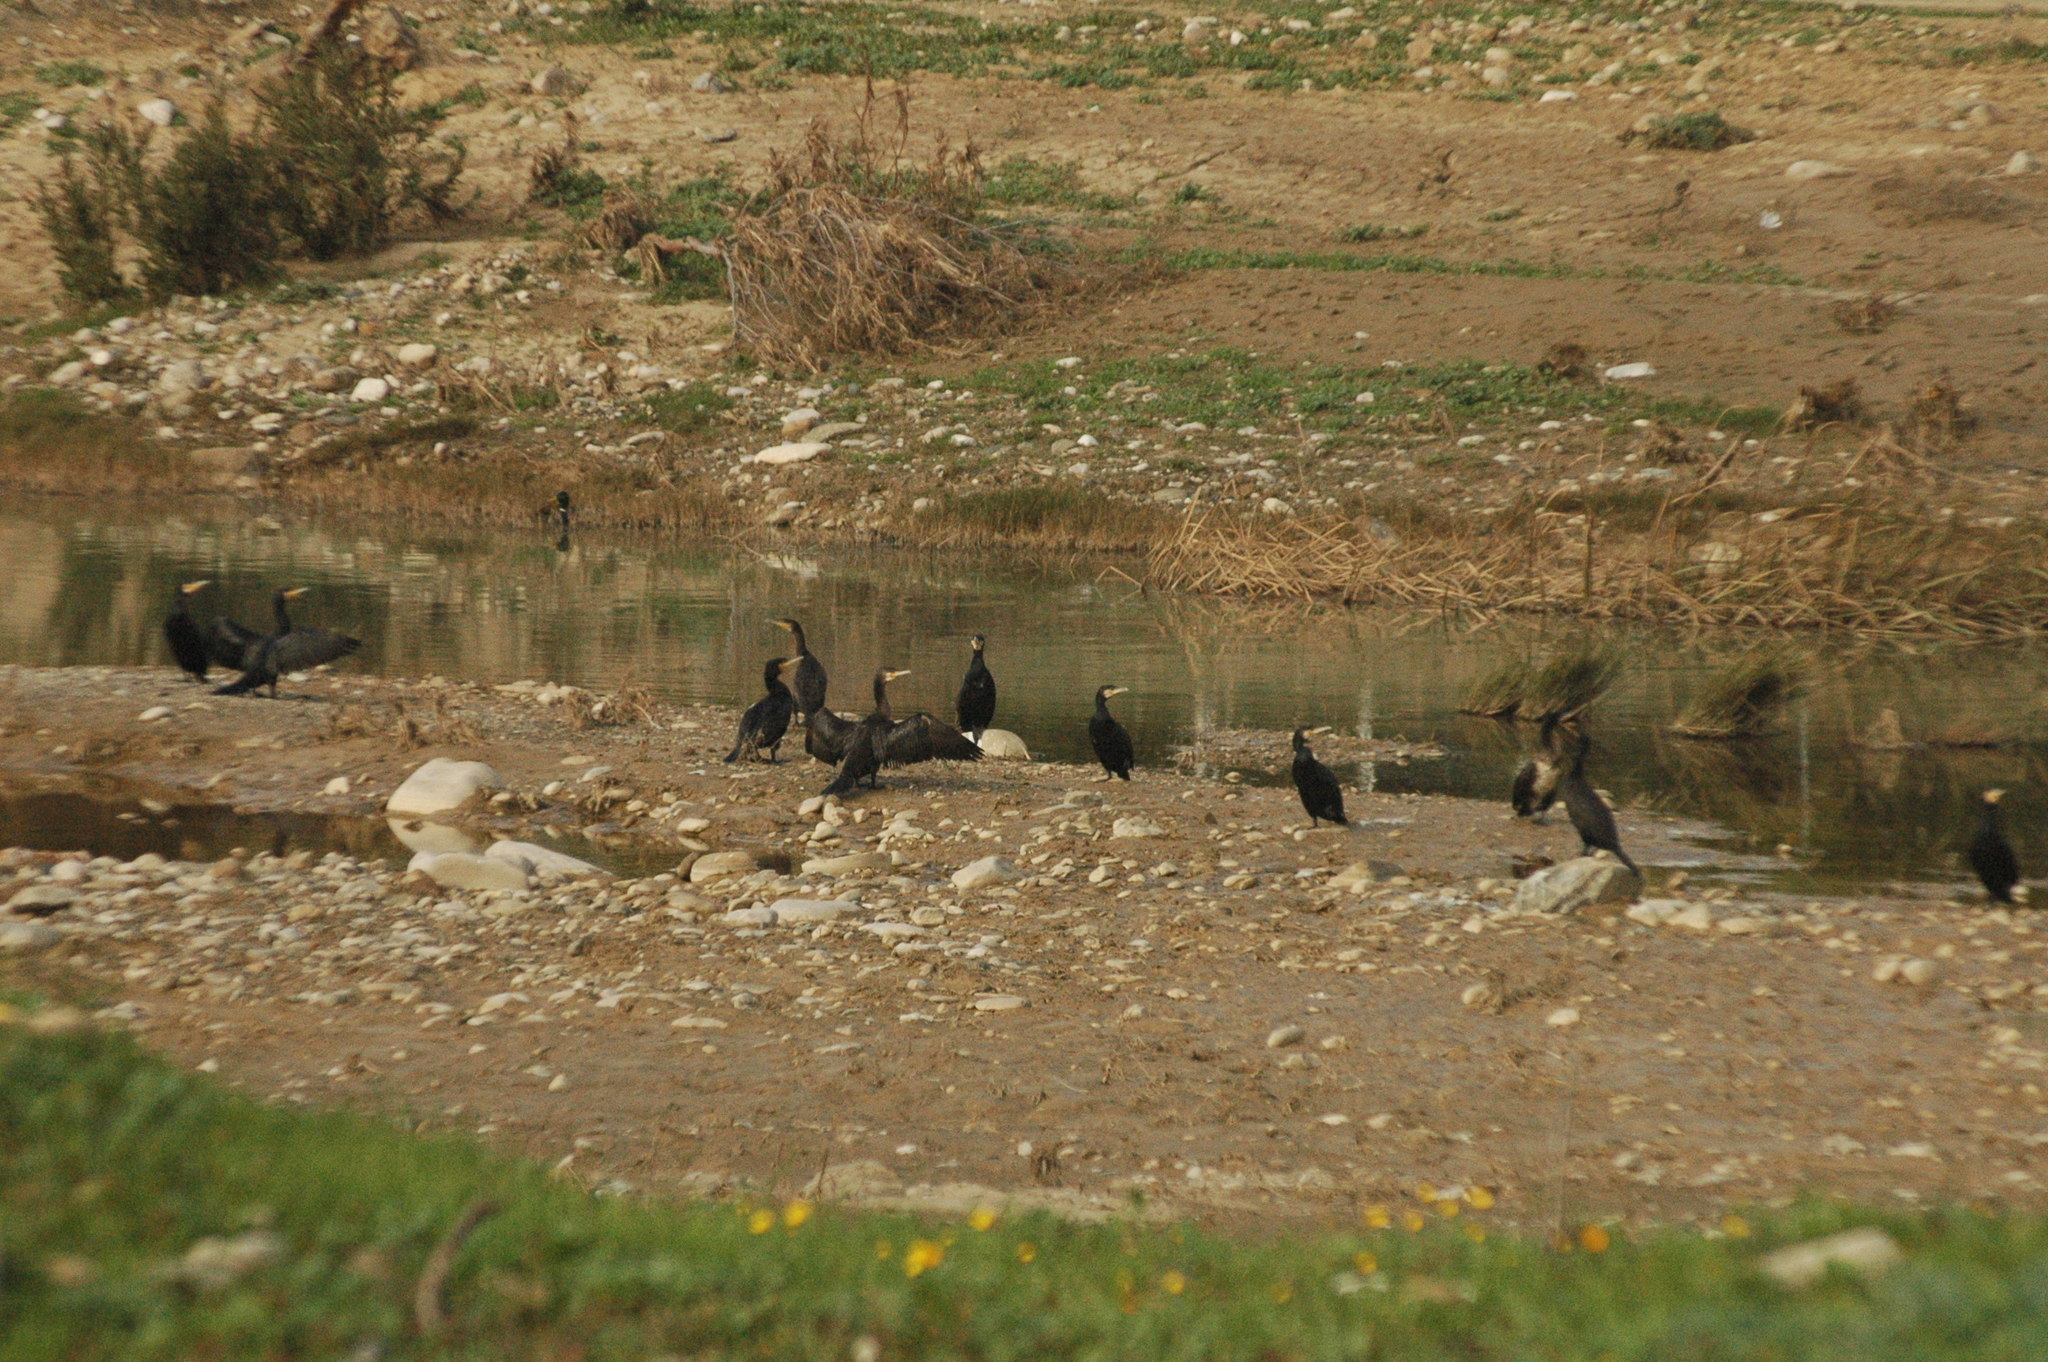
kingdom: Animalia
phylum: Chordata
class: Aves
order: Suliformes
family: Phalacrocoracidae
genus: Phalacrocorax
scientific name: Phalacrocorax carbo
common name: Great cormorant
